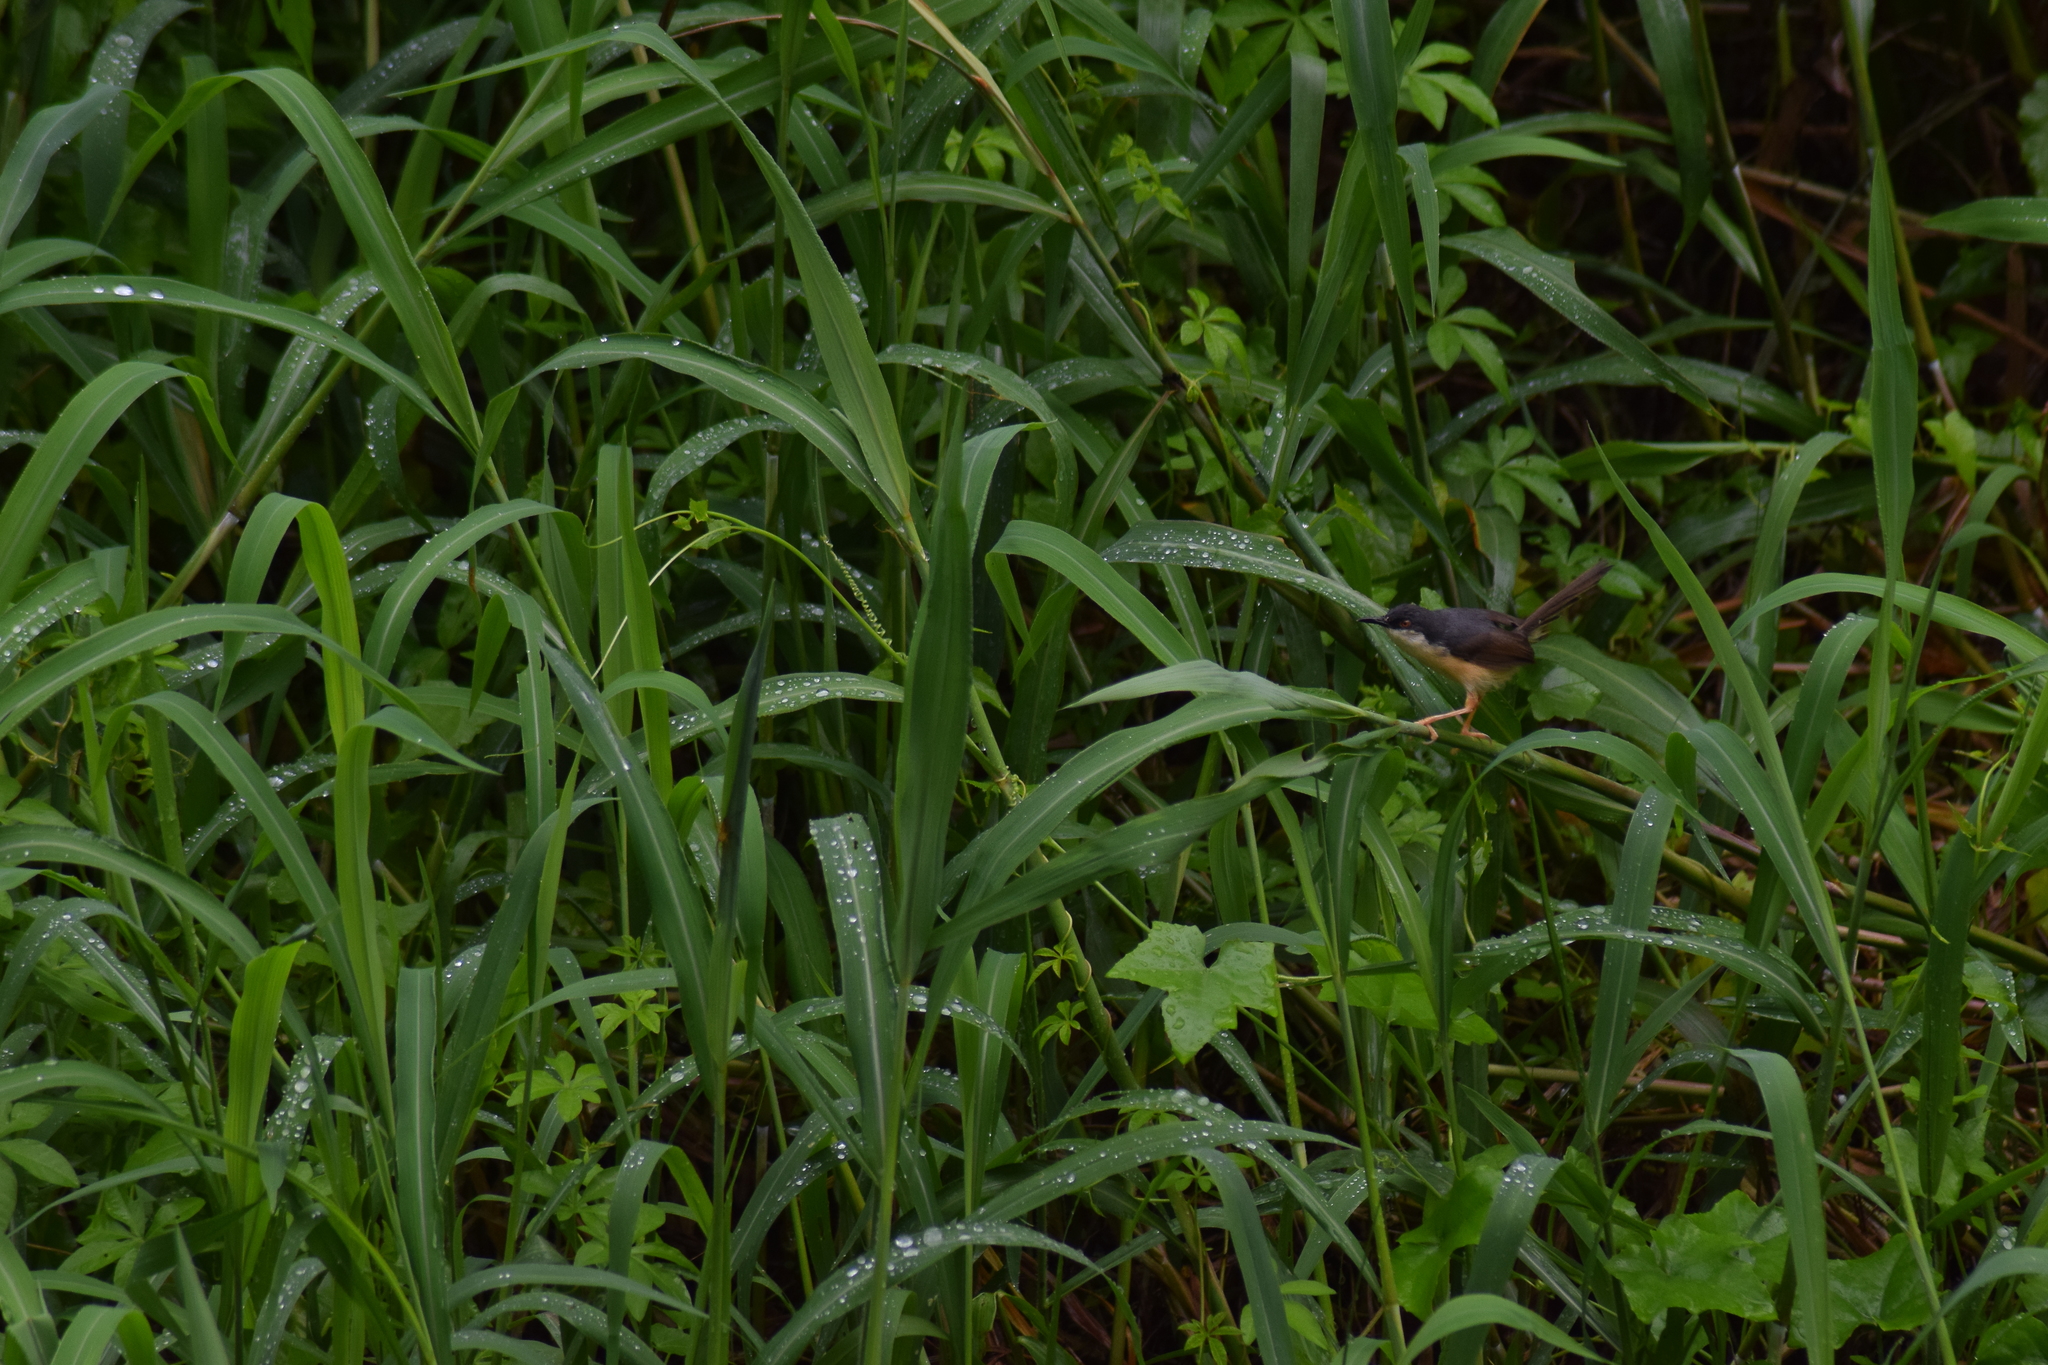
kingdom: Animalia
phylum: Chordata
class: Aves
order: Passeriformes
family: Cisticolidae
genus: Prinia
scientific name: Prinia socialis
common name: Ashy prinia
